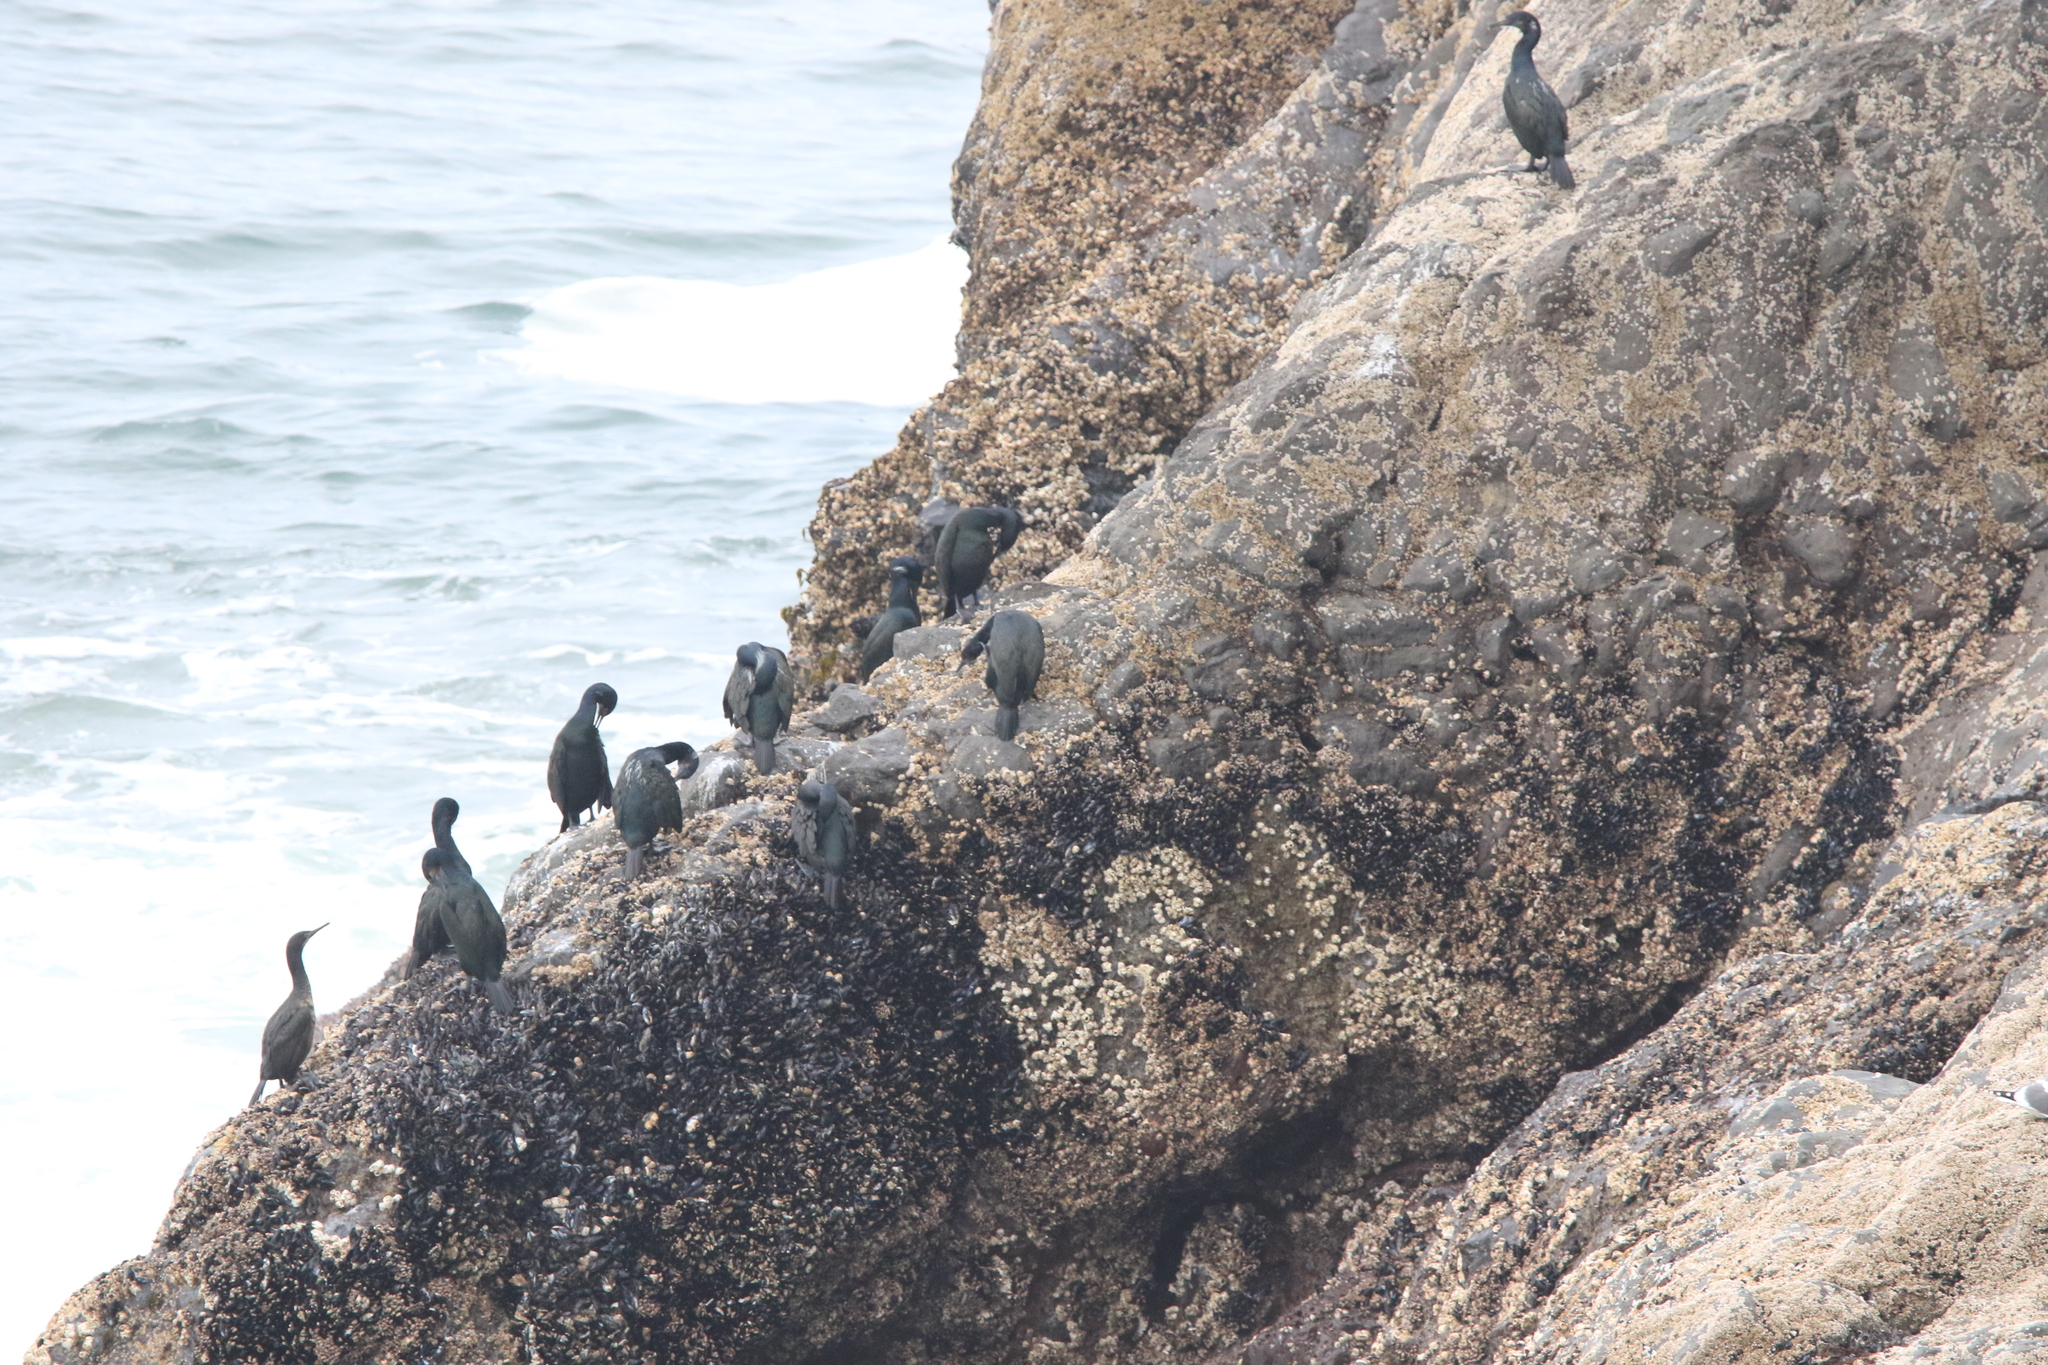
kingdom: Animalia
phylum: Chordata
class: Aves
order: Suliformes
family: Phalacrocoracidae
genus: Urile
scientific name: Urile penicillatus
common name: Brandt's cormorant
